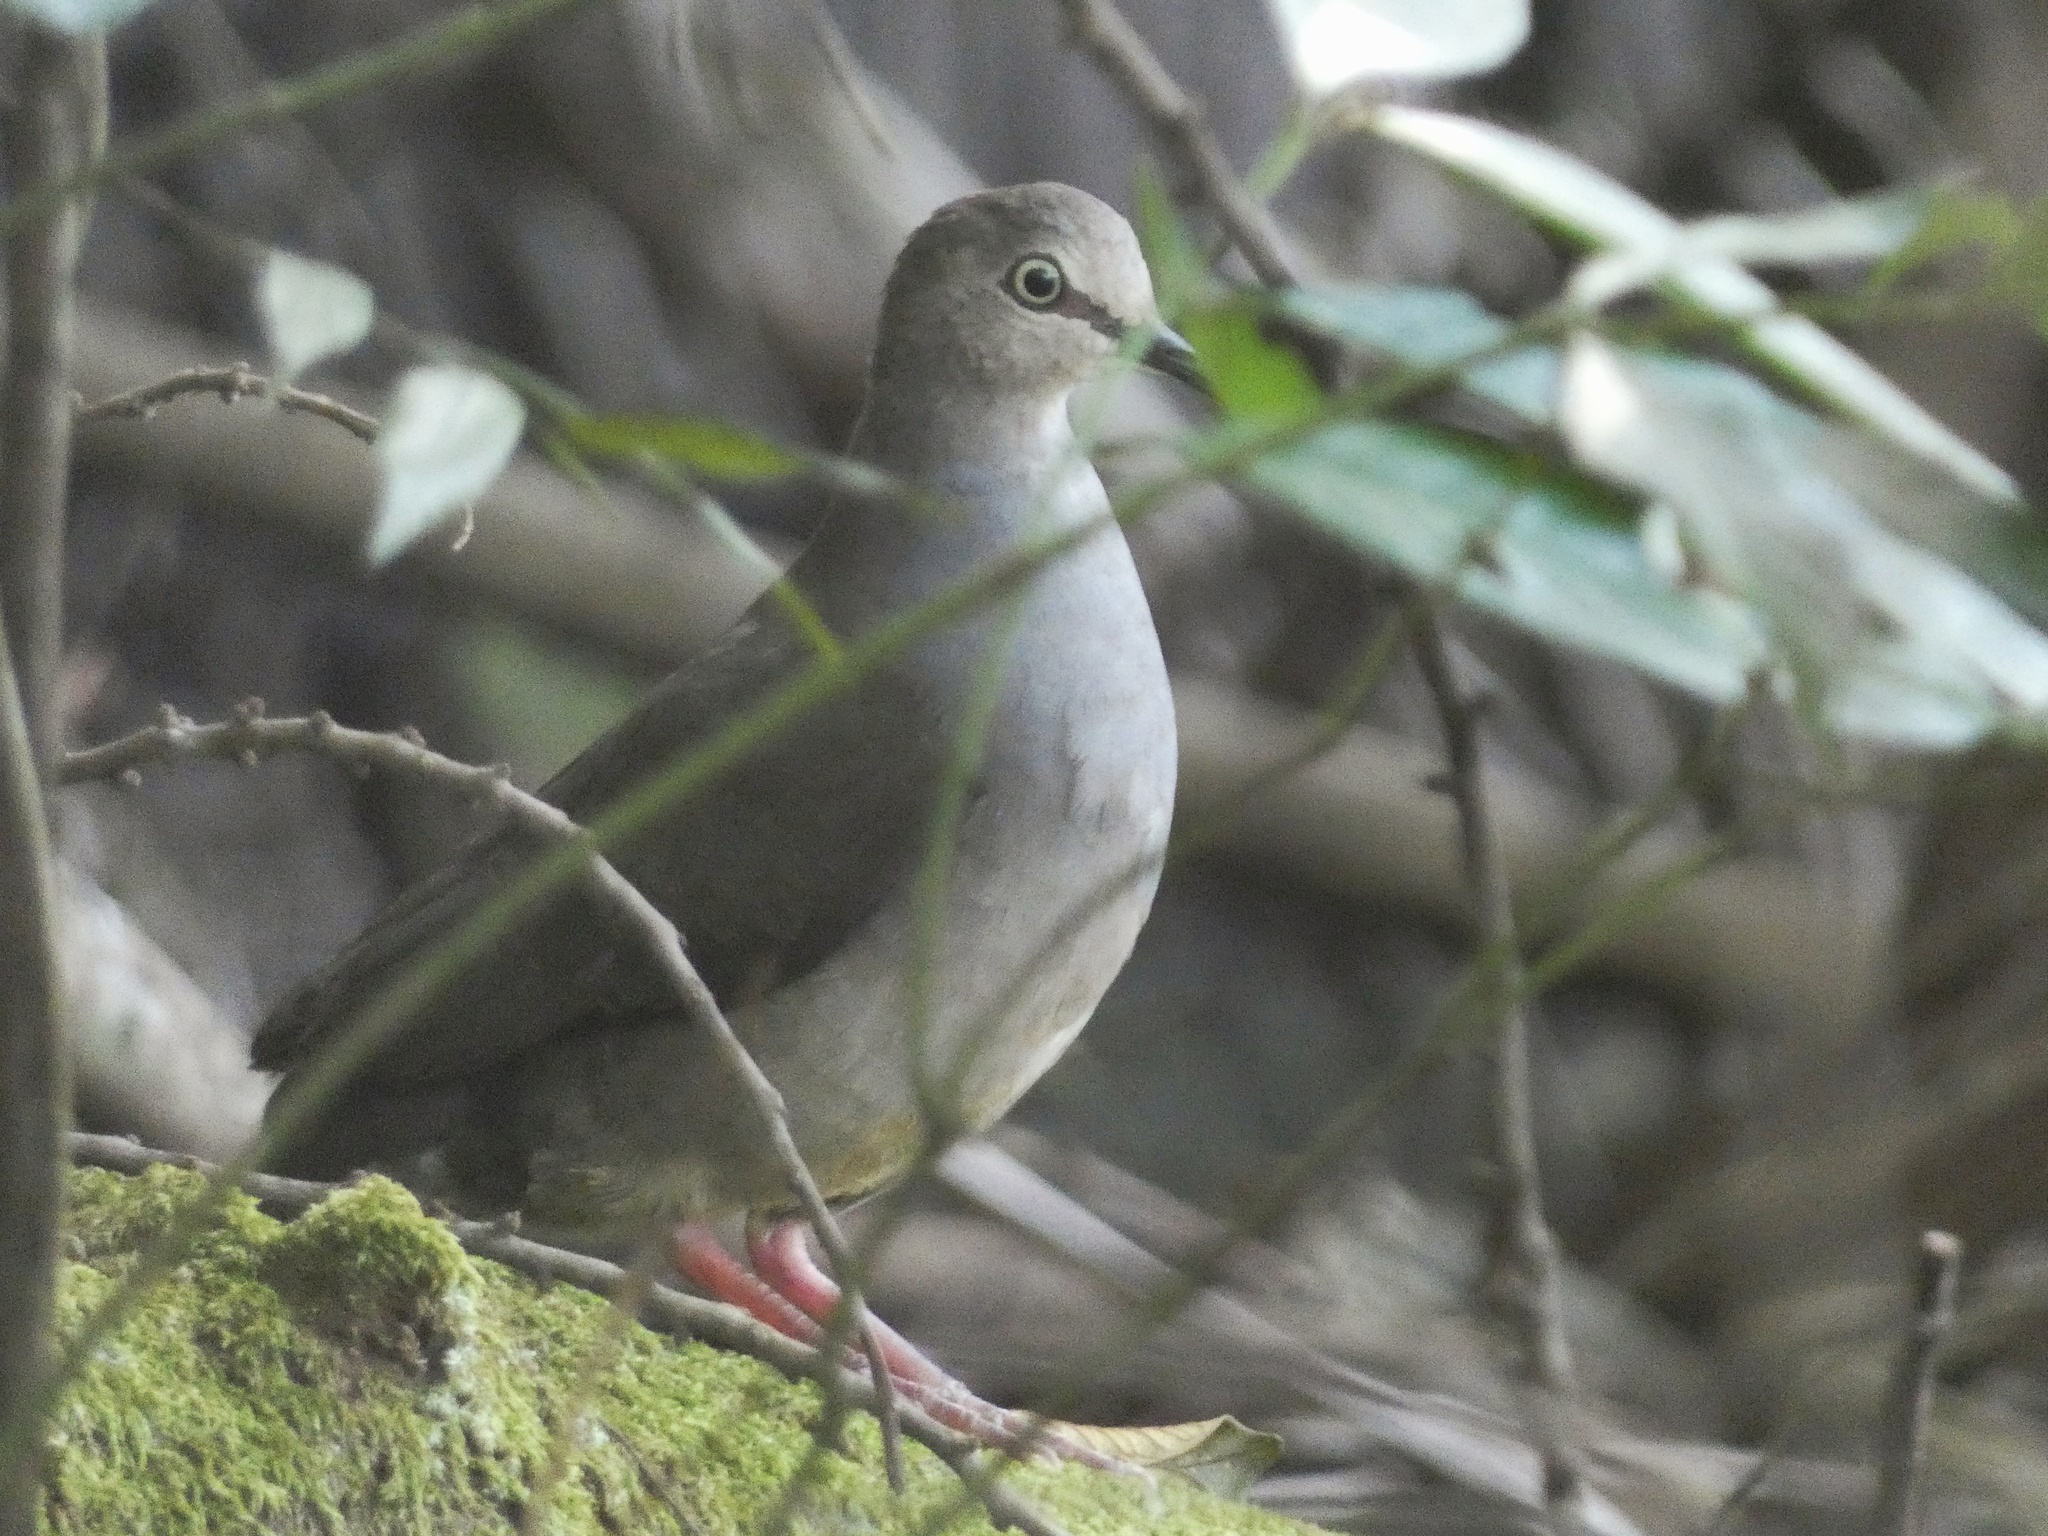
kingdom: Animalia
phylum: Chordata
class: Aves
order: Columbiformes
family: Columbidae
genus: Leptotila
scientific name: Leptotila cassinii
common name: Grey-chested dove
